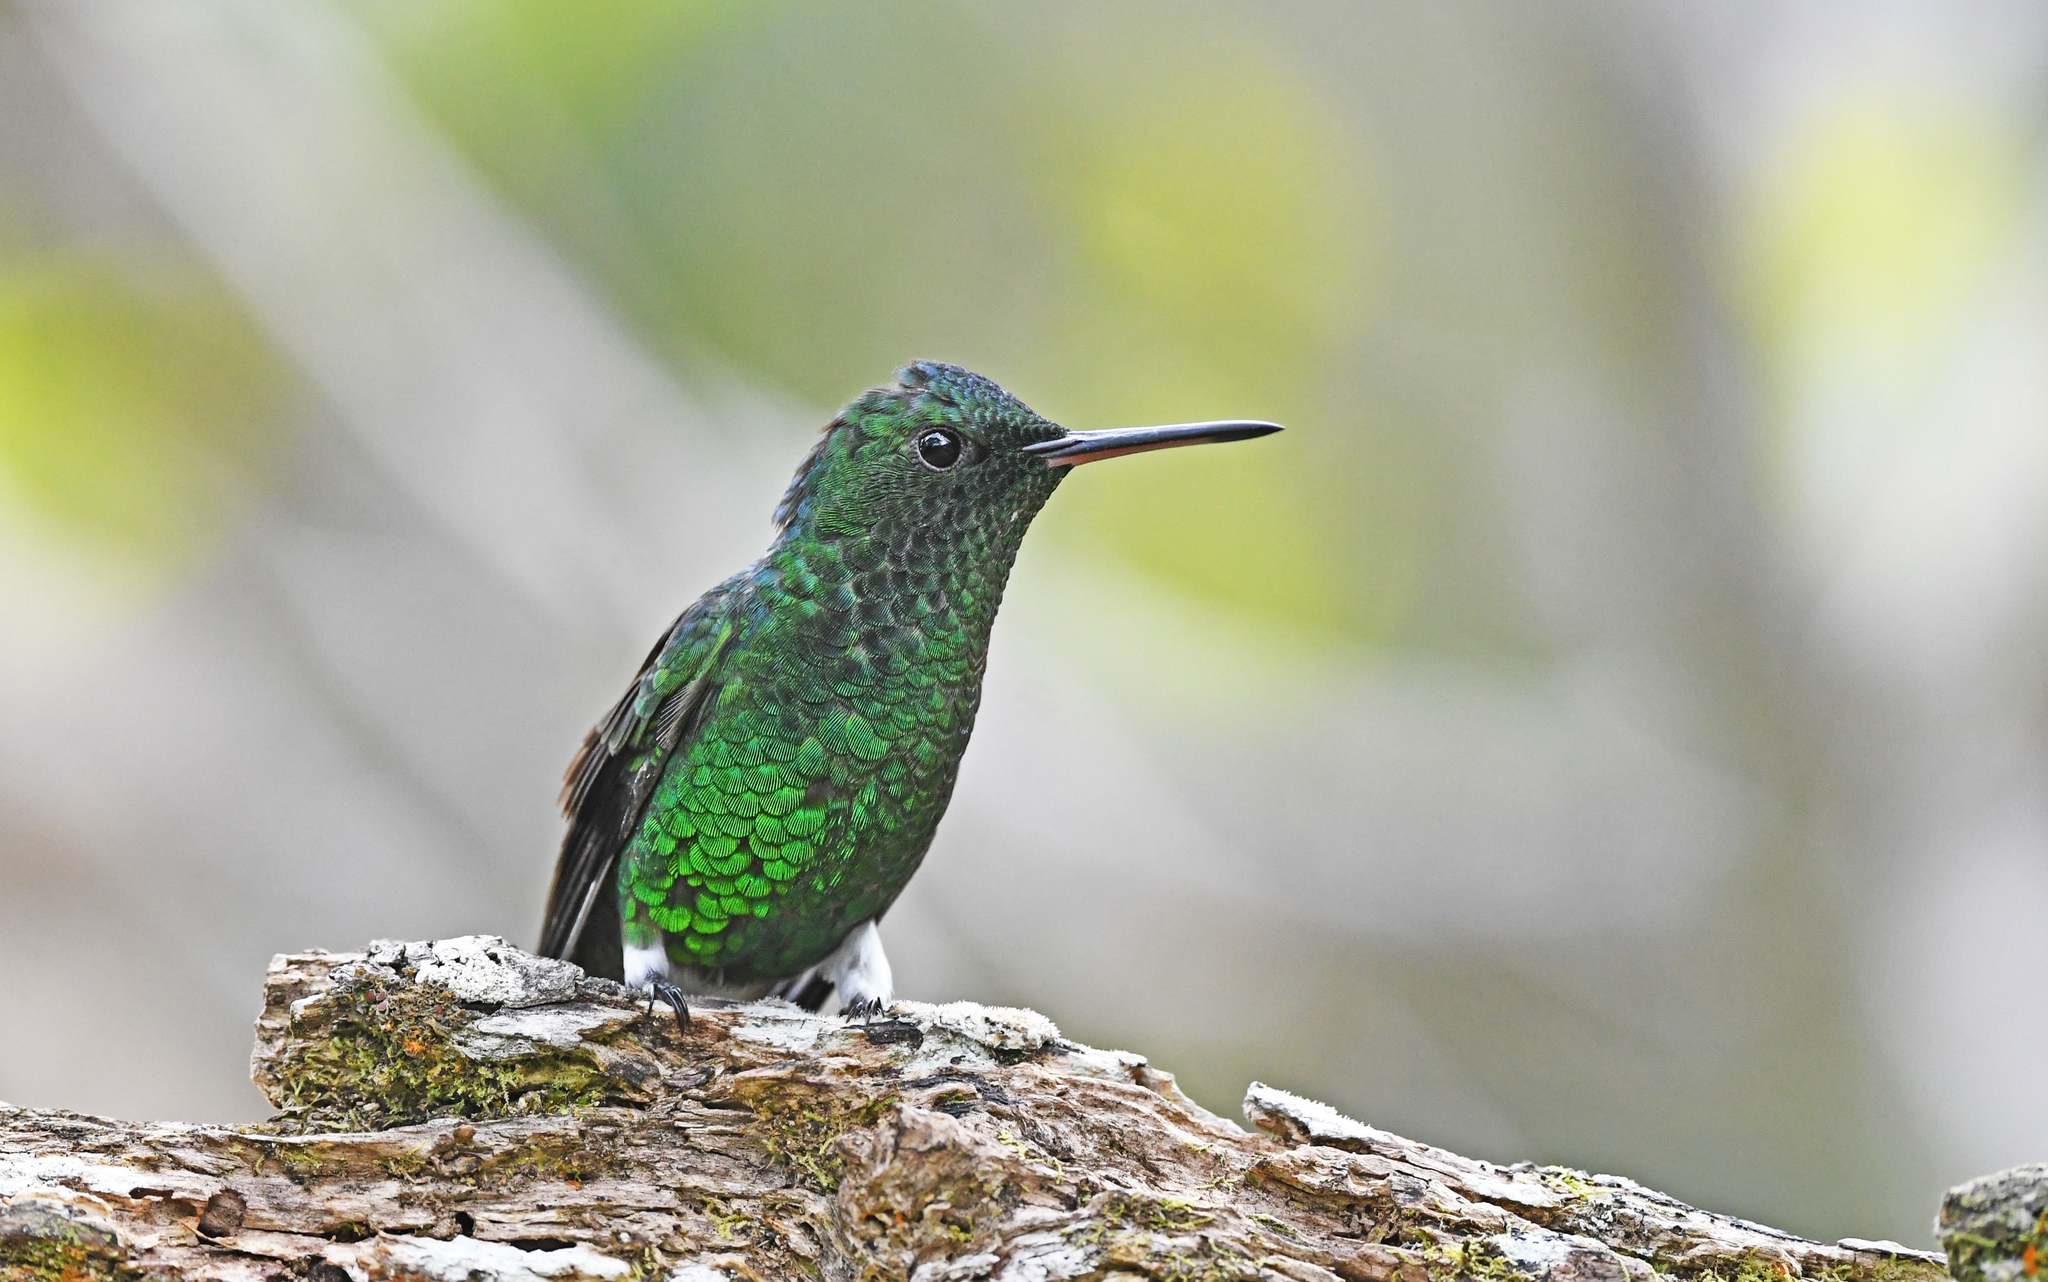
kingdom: Animalia
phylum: Chordata
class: Aves
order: Apodiformes
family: Trochilidae
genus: Saucerottia
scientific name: Saucerottia saucerottei
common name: Steely-vented hummingbird
